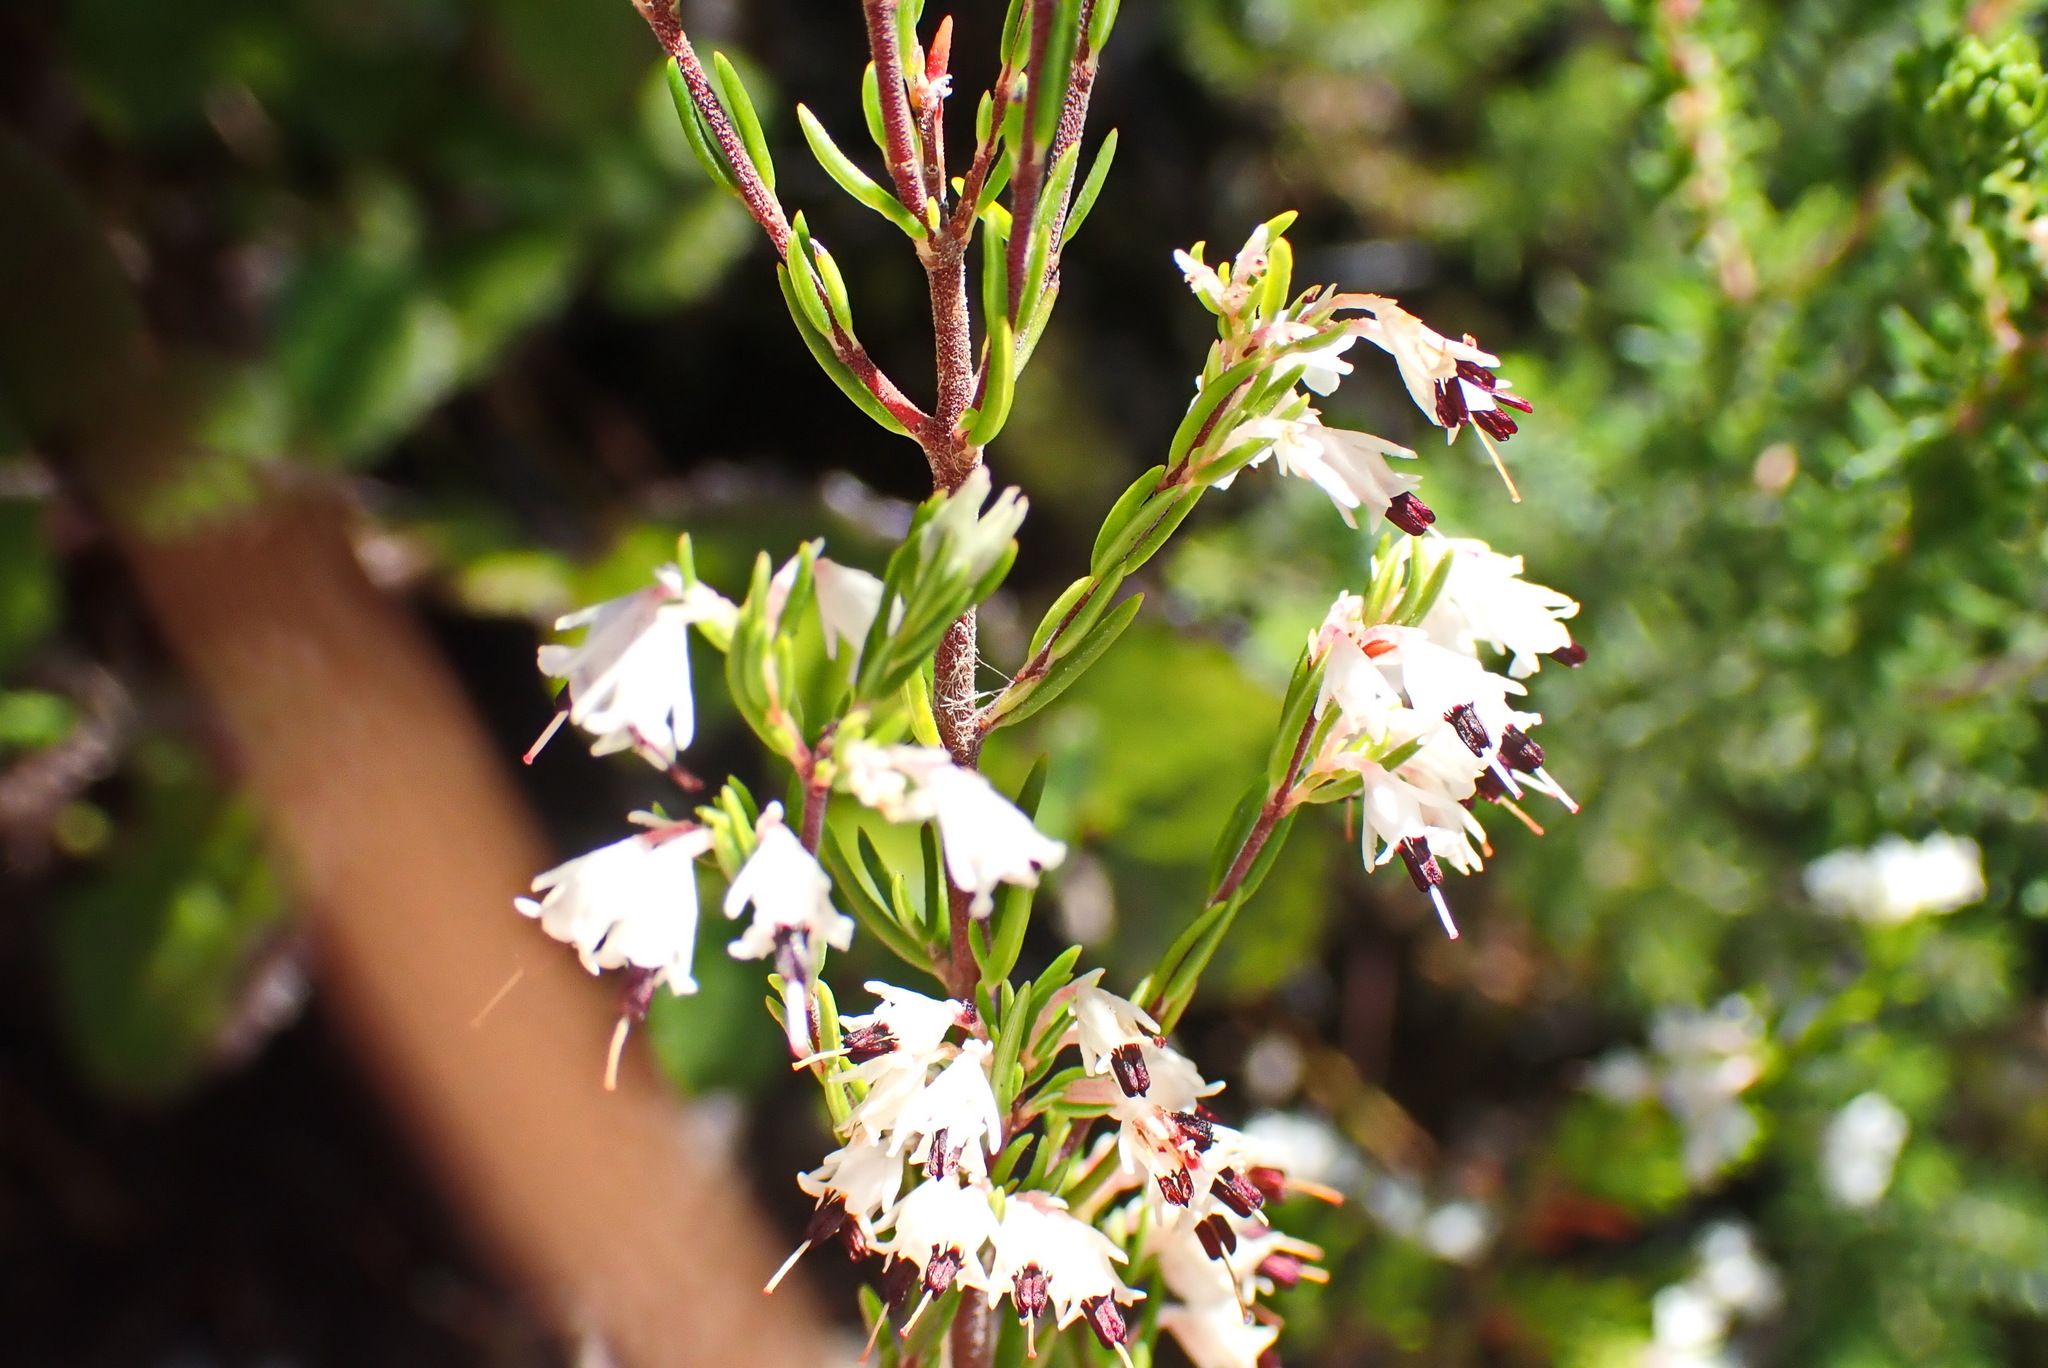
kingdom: Plantae
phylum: Tracheophyta
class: Magnoliopsida
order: Ericales
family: Ericaceae
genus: Erica
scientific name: Erica fuscescens
